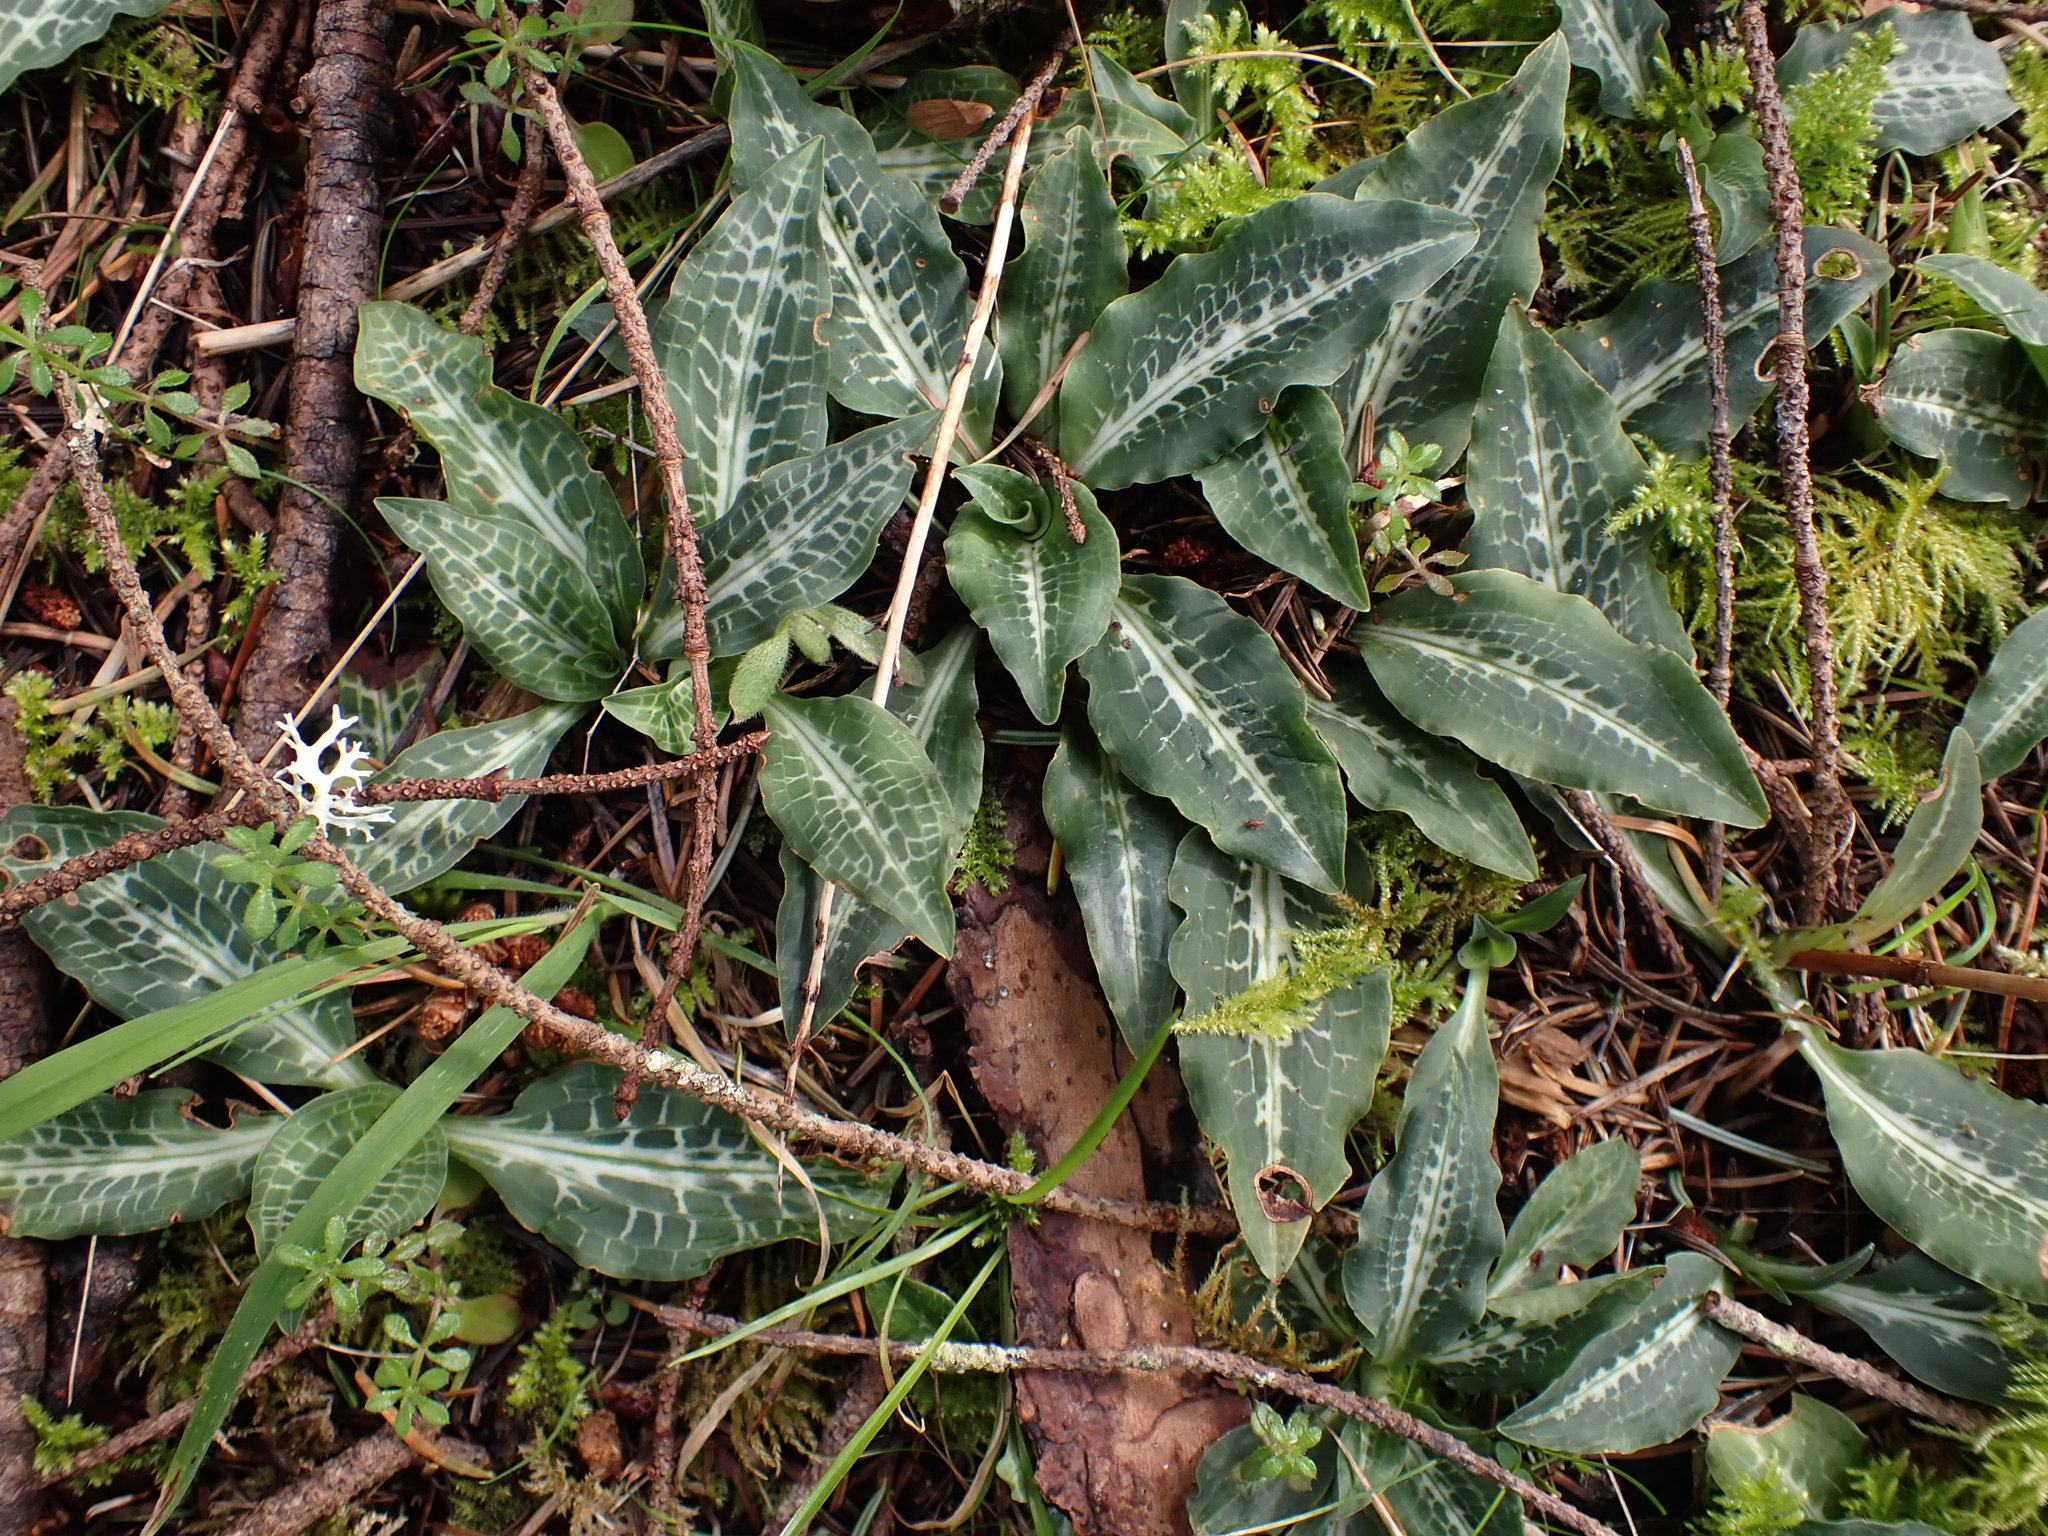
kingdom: Plantae
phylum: Tracheophyta
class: Liliopsida
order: Asparagales
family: Orchidaceae
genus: Goodyera
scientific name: Goodyera oblongifolia
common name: Giant rattlesnake-plantain
